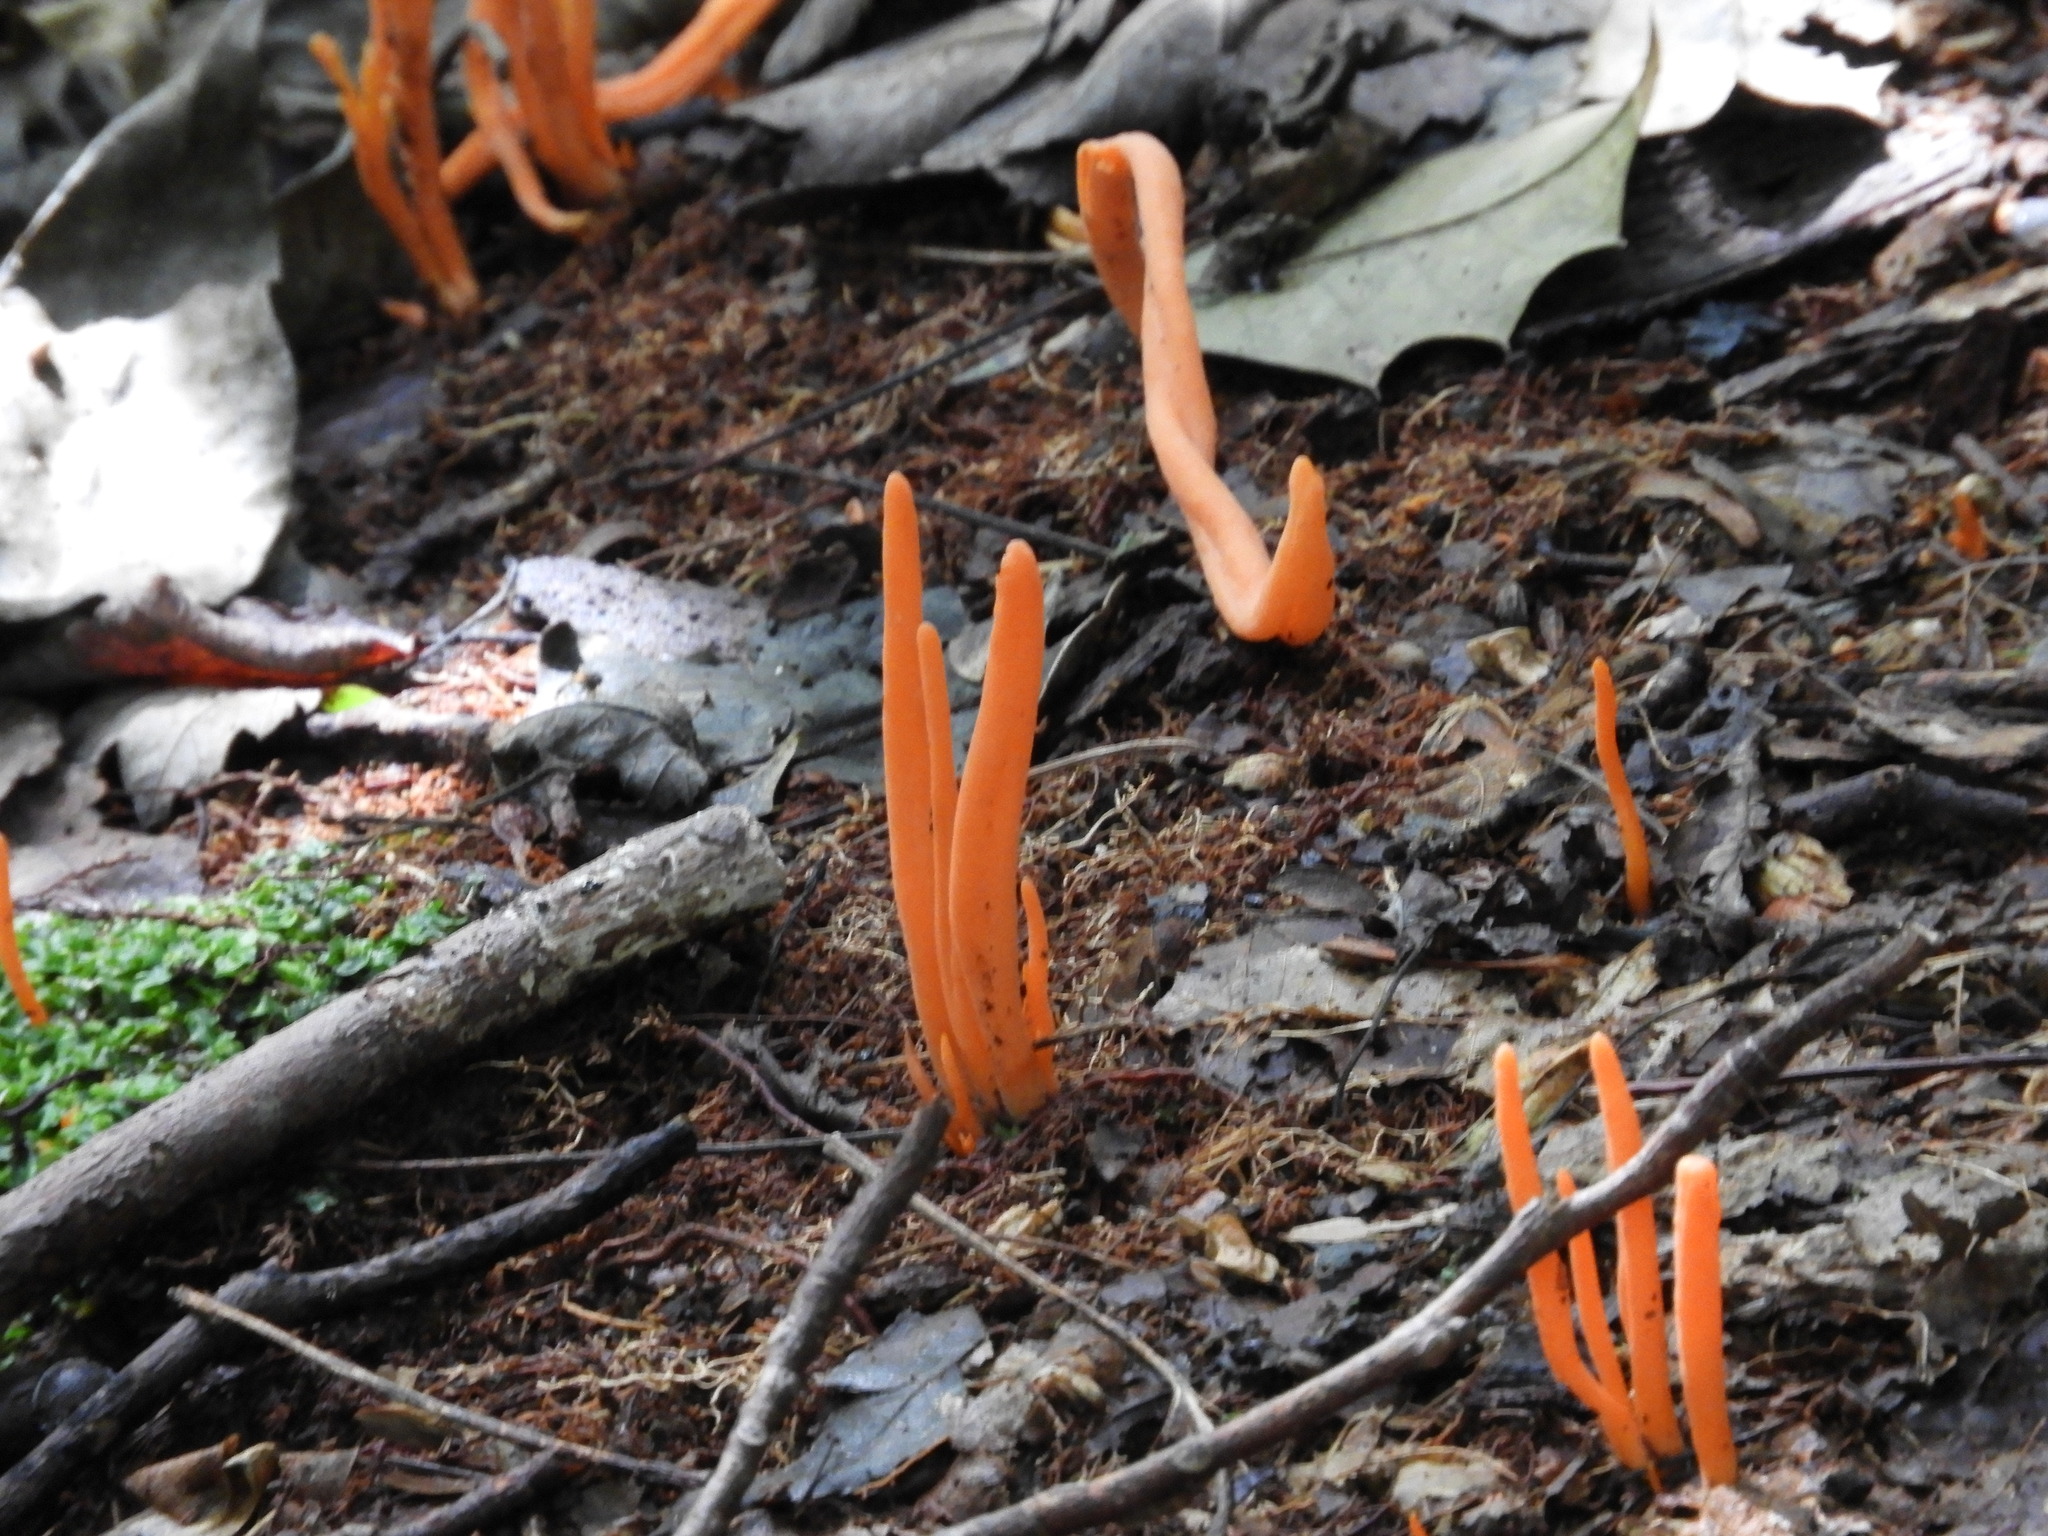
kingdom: Fungi
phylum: Basidiomycota
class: Agaricomycetes
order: Agaricales
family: Clavariaceae
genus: Clavulinopsis
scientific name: Clavulinopsis aurantiocinnabarina
